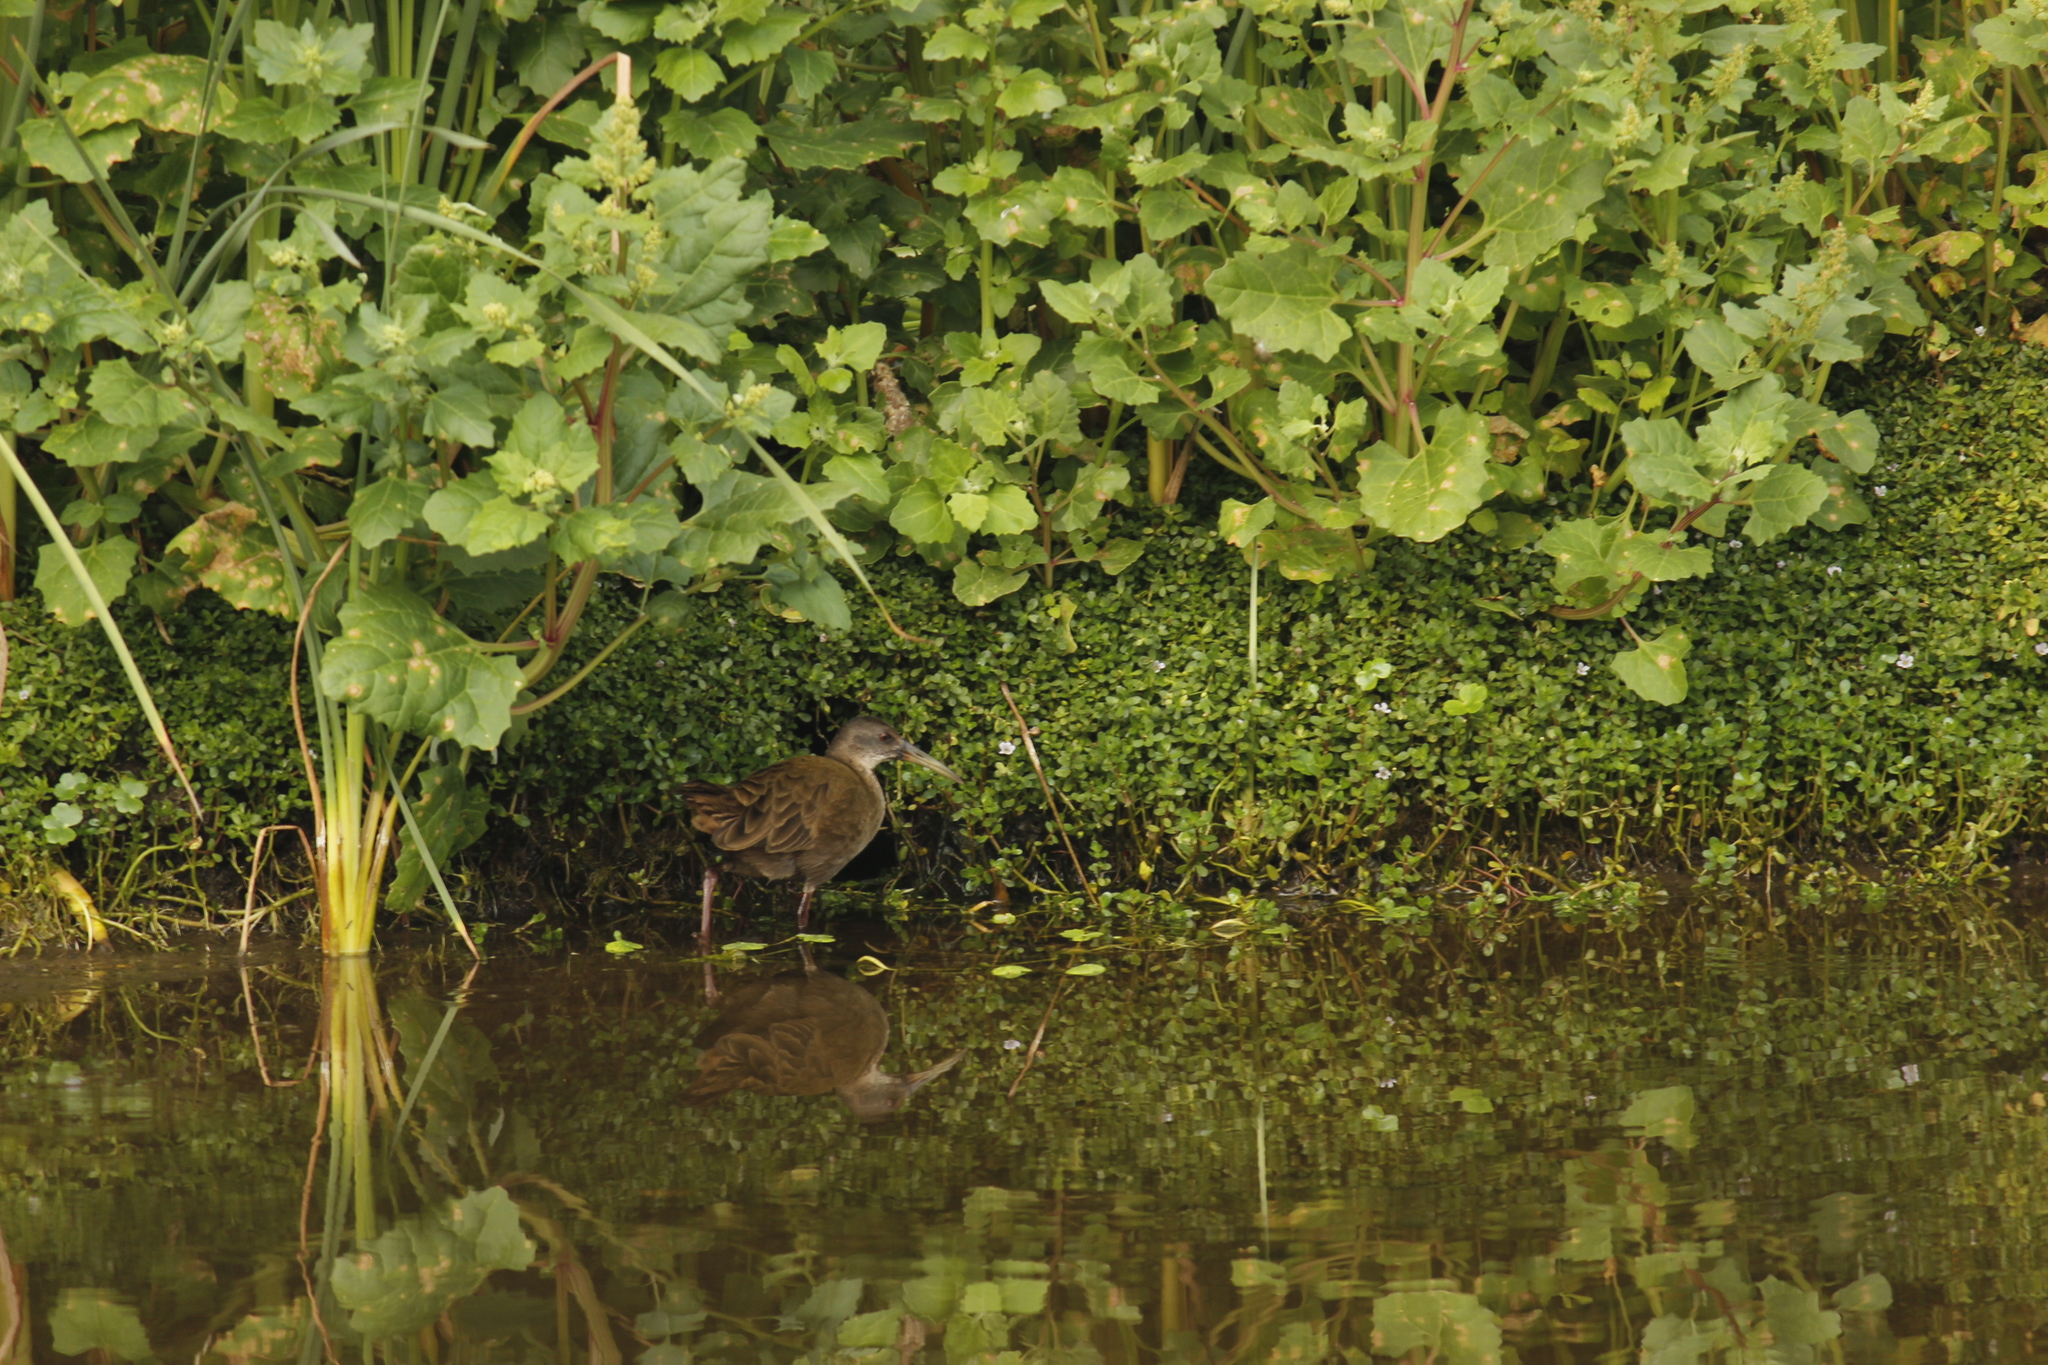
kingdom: Animalia
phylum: Chordata
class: Aves
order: Gruiformes
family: Rallidae
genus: Pardirallus
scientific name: Pardirallus sanguinolentus
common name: Plumbeous rail
